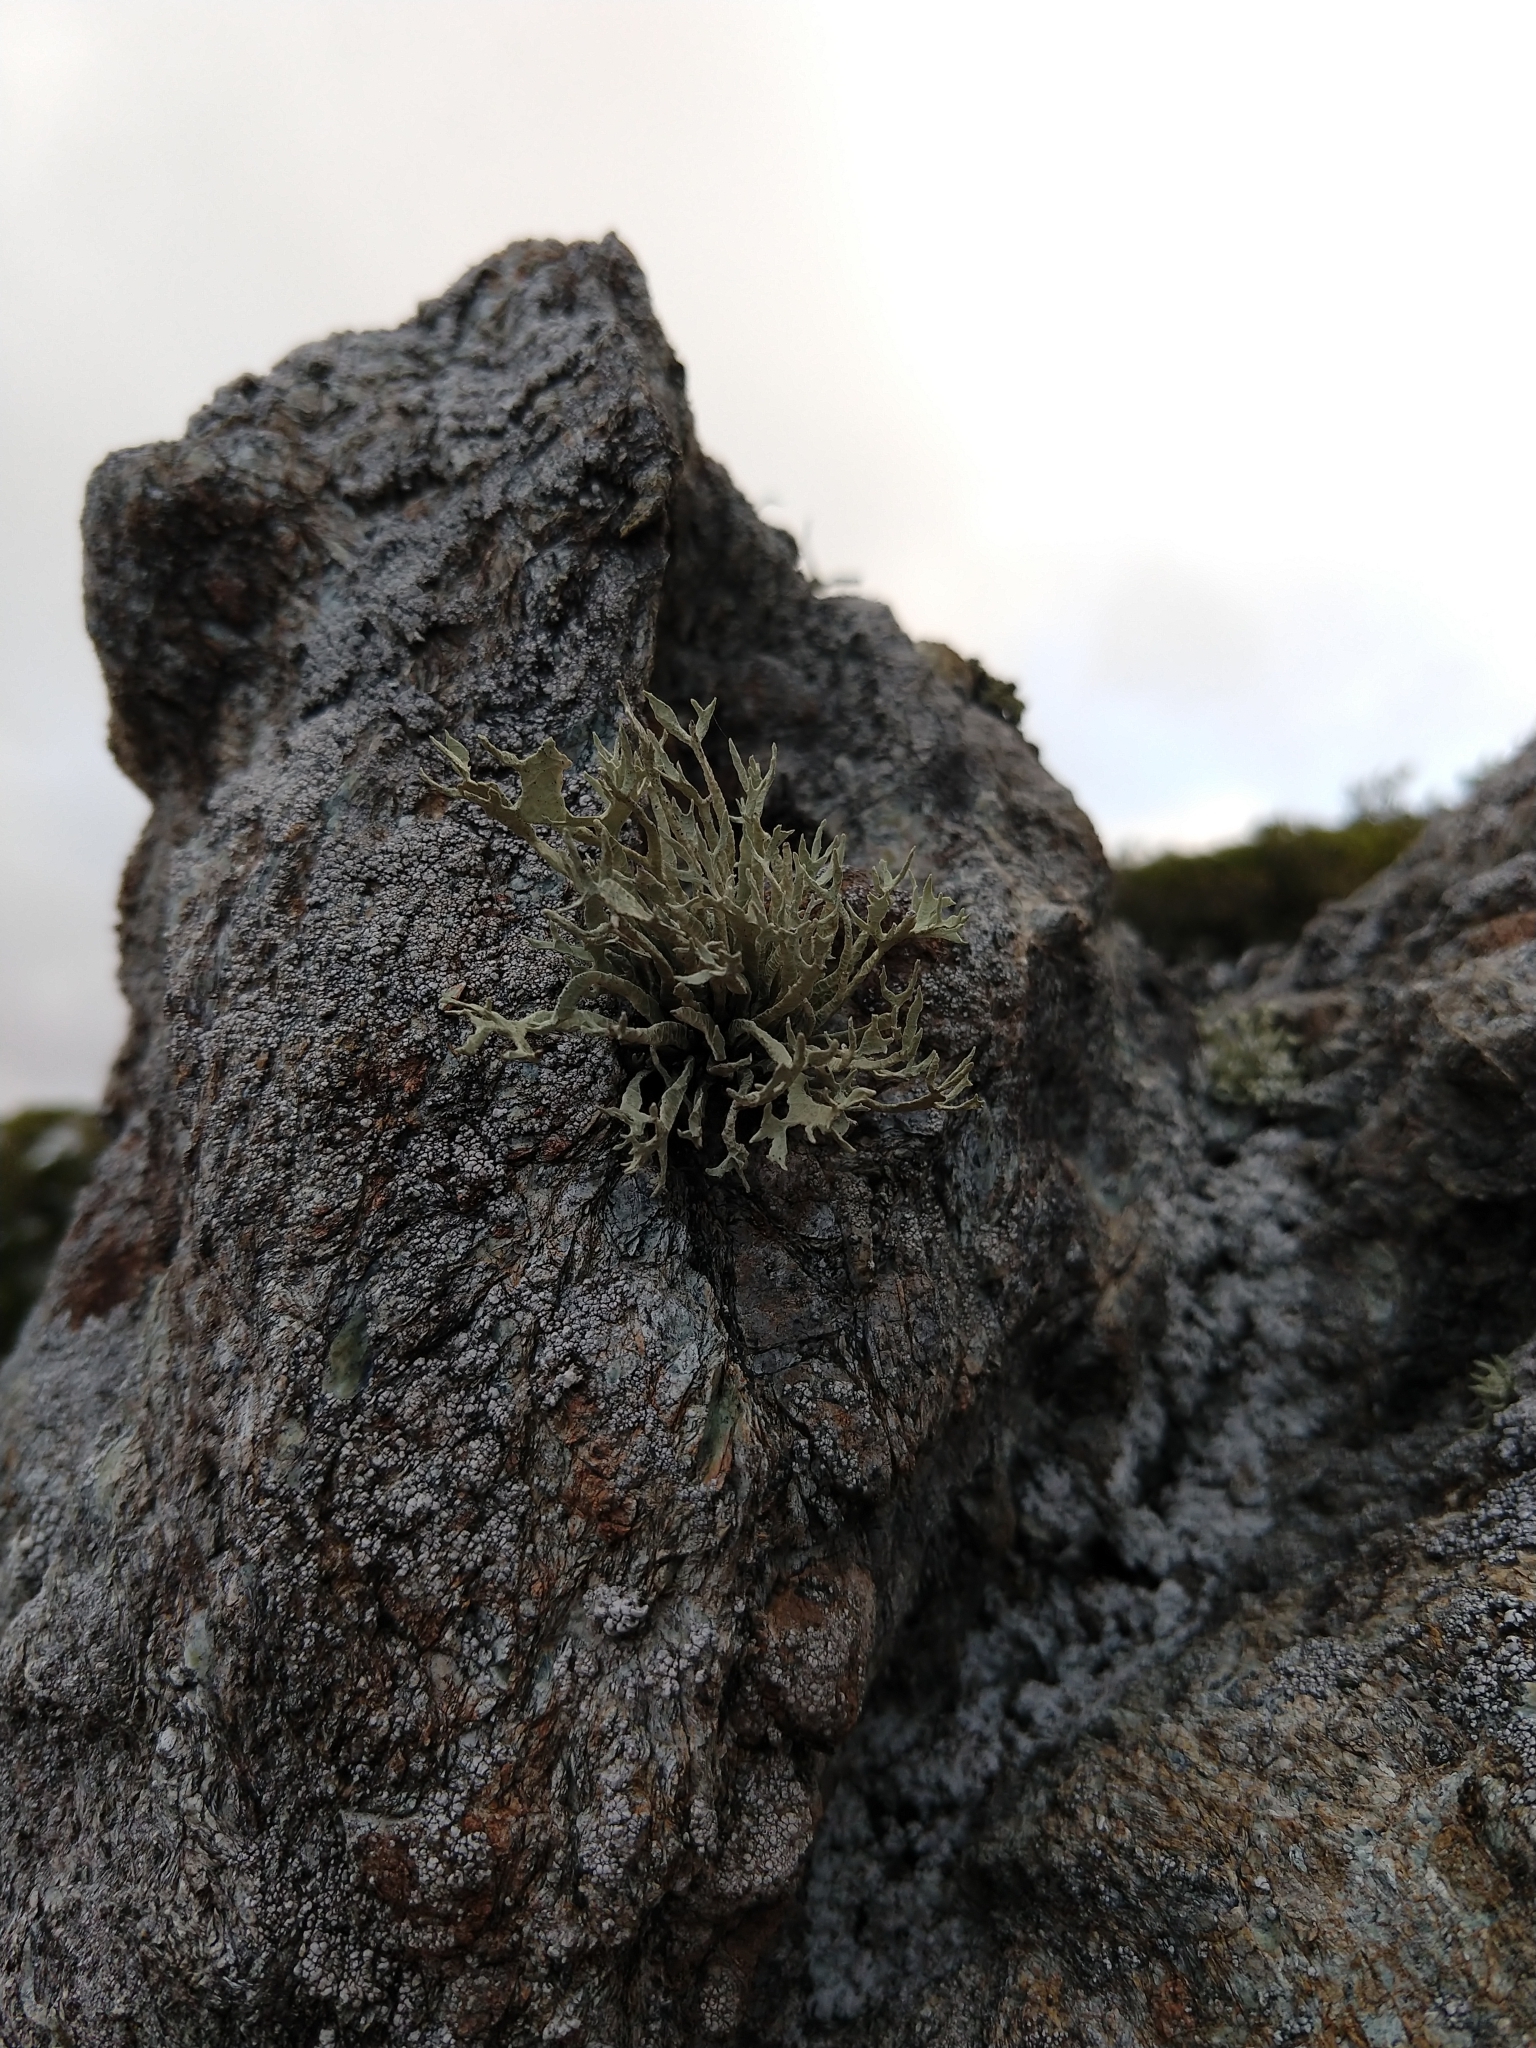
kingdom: Fungi
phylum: Ascomycota
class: Lecanoromycetes
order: Lecanorales
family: Ramalinaceae
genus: Niebla
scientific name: Niebla homalea
